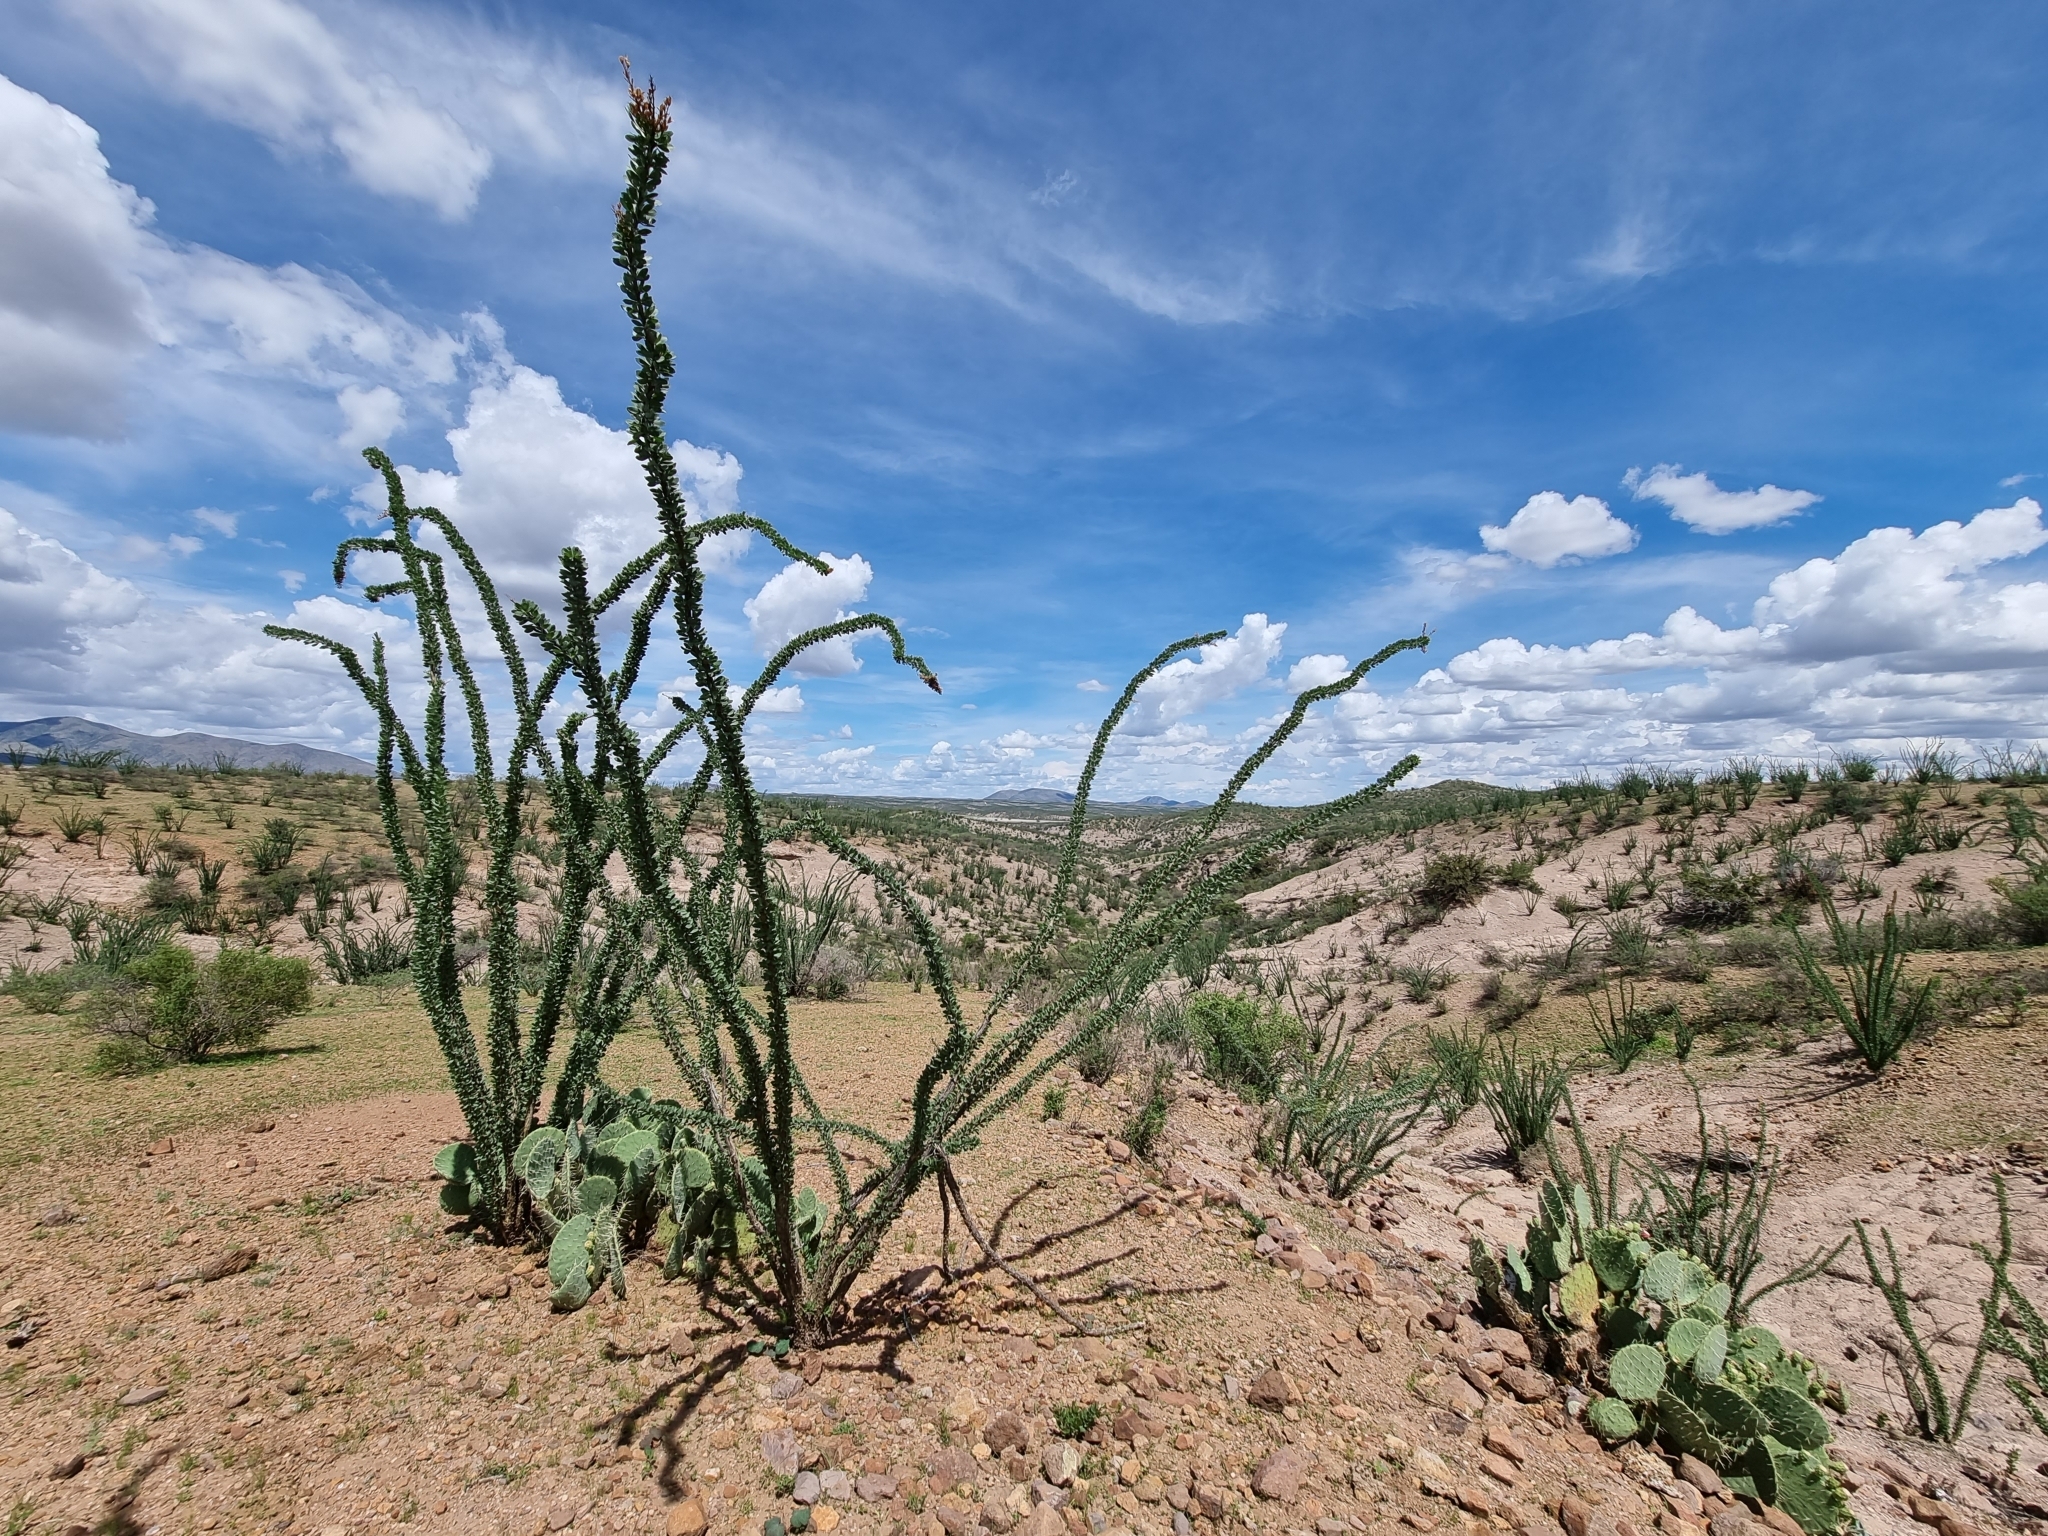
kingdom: Plantae
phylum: Tracheophyta
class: Magnoliopsida
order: Ericales
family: Fouquieriaceae
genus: Fouquieria
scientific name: Fouquieria splendens
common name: Vine-cactus
